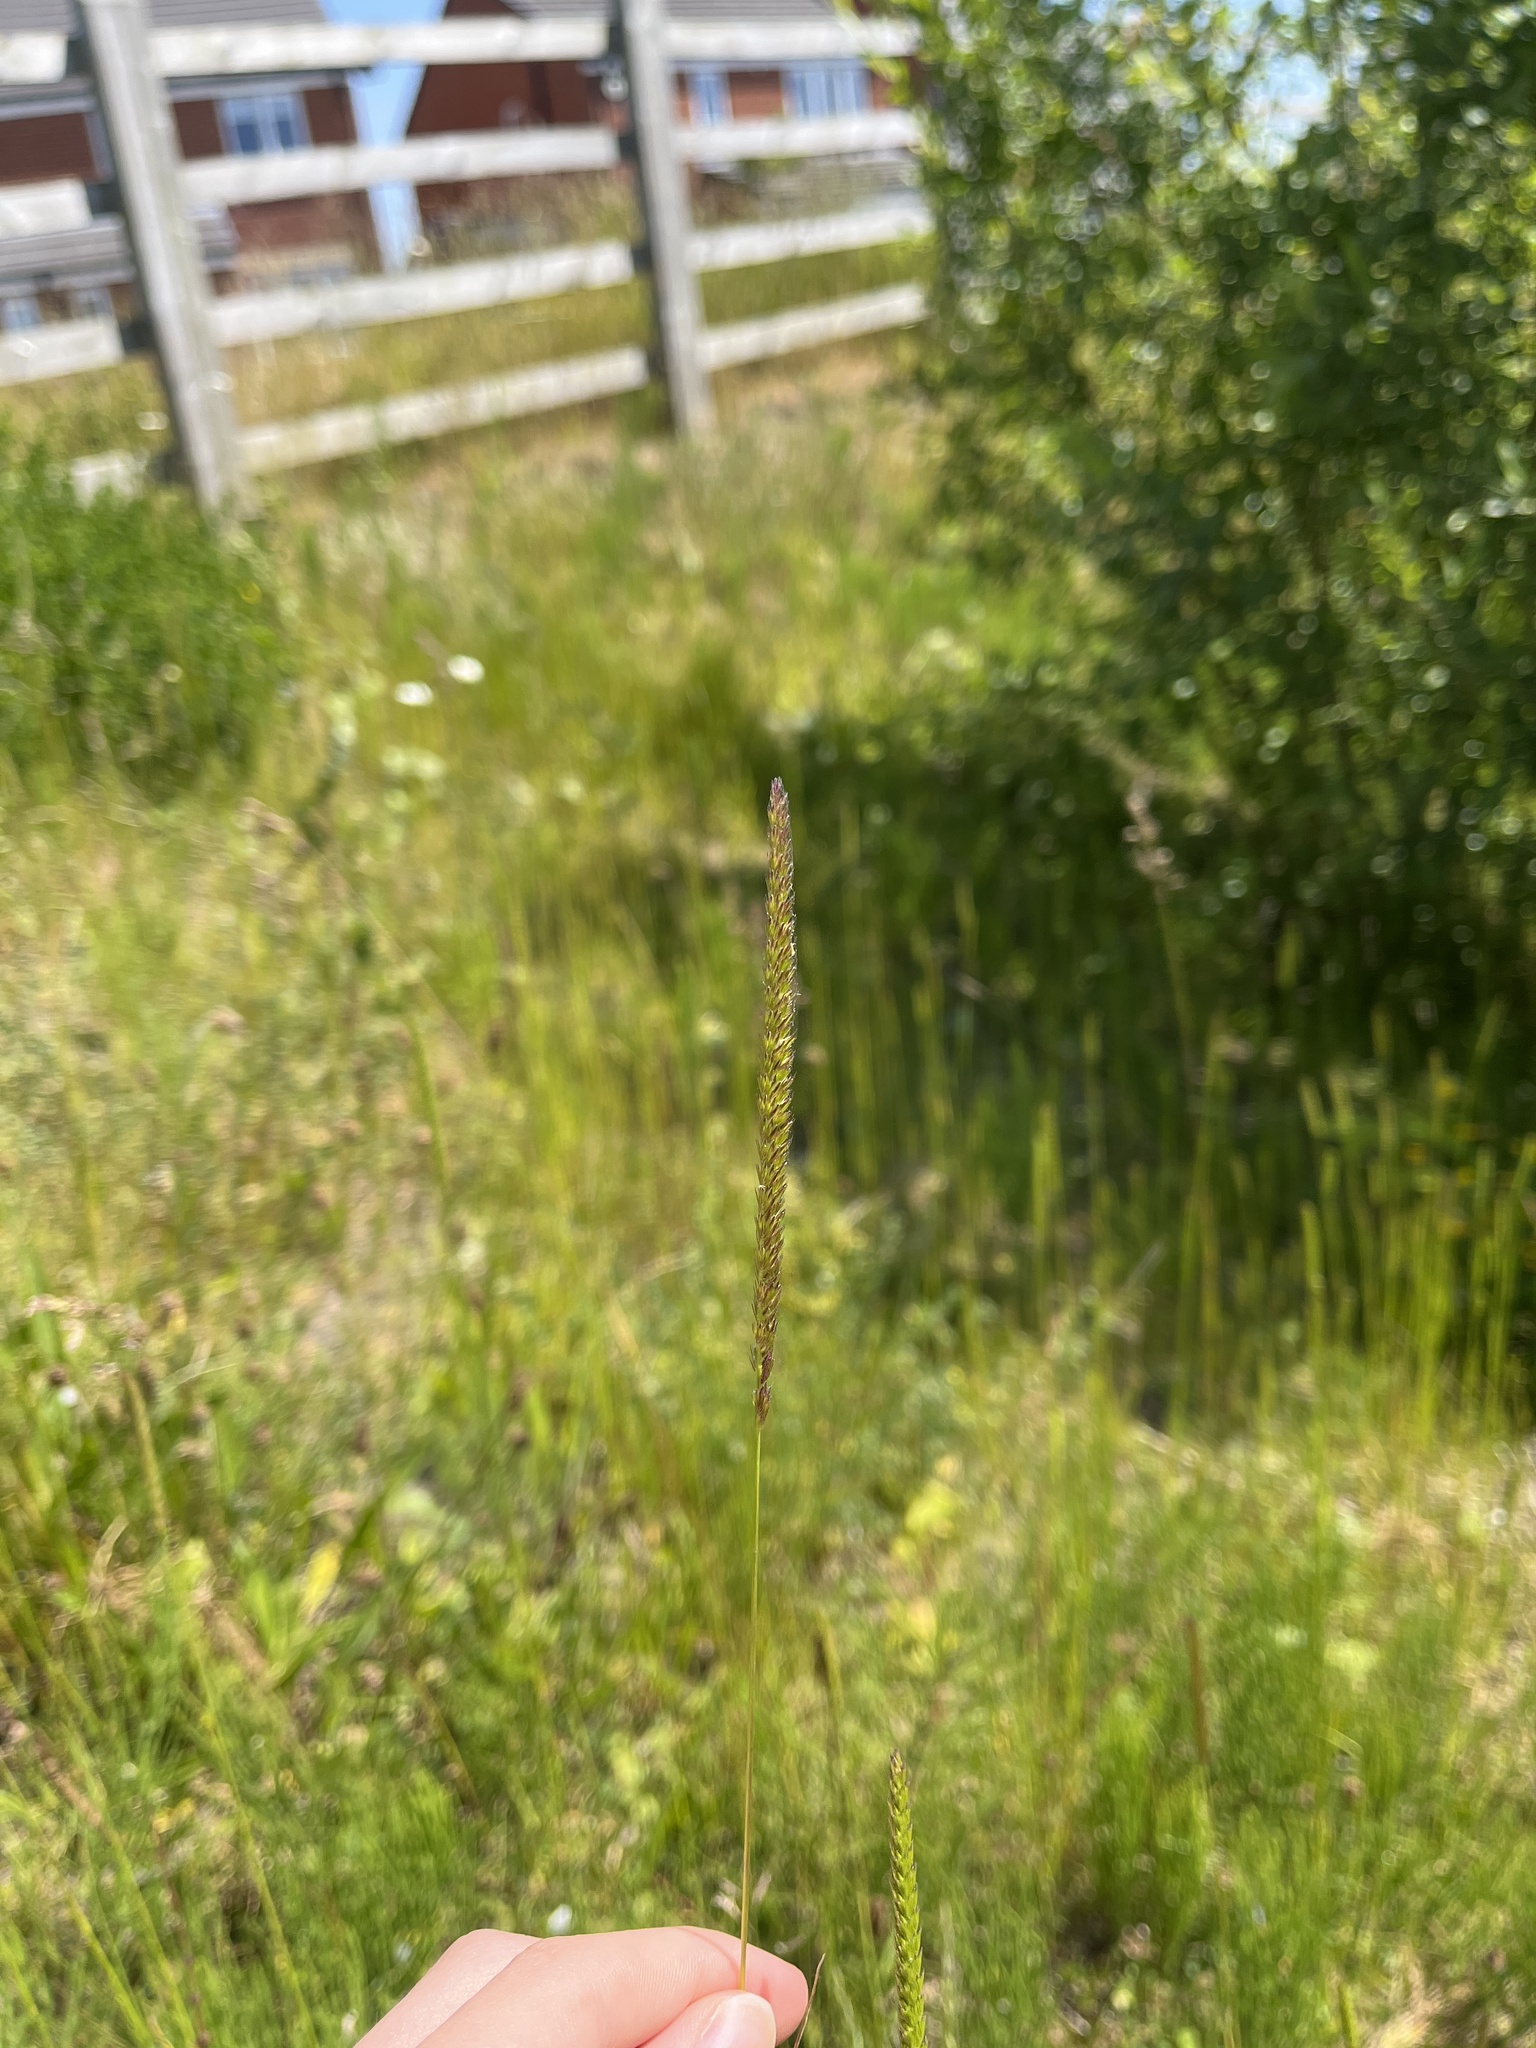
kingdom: Plantae
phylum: Tracheophyta
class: Liliopsida
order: Poales
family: Poaceae
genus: Cynosurus
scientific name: Cynosurus cristatus
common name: Crested dog's-tail
